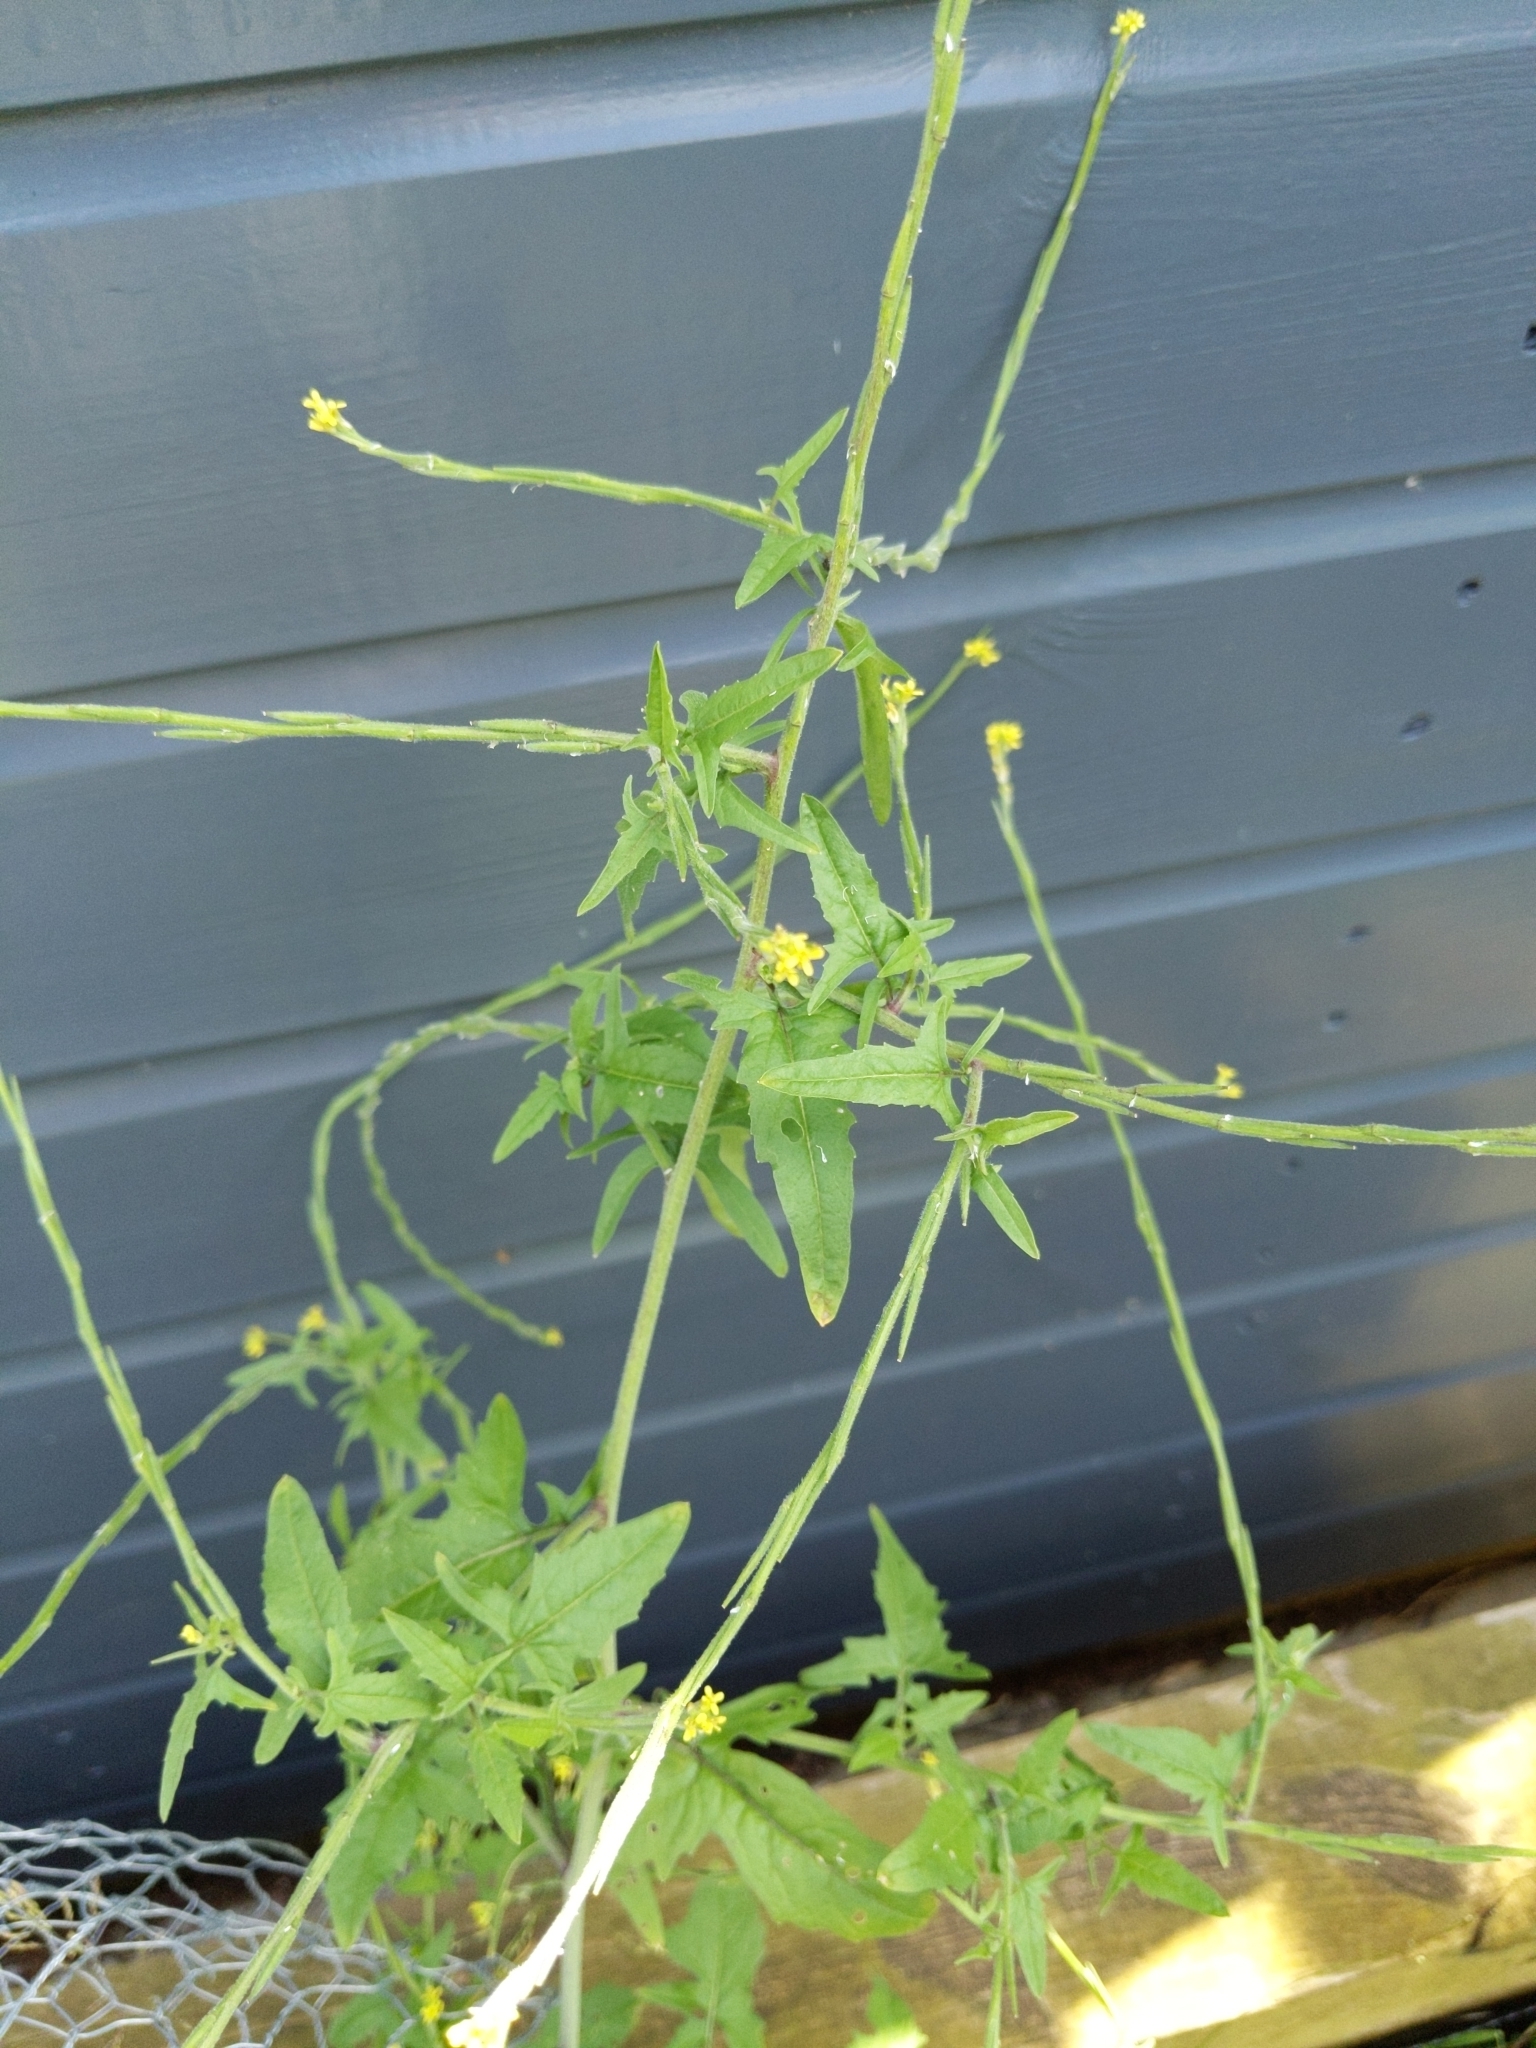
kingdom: Plantae
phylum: Tracheophyta
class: Magnoliopsida
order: Brassicales
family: Brassicaceae
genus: Sisymbrium
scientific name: Sisymbrium officinale
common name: Hedge mustard
